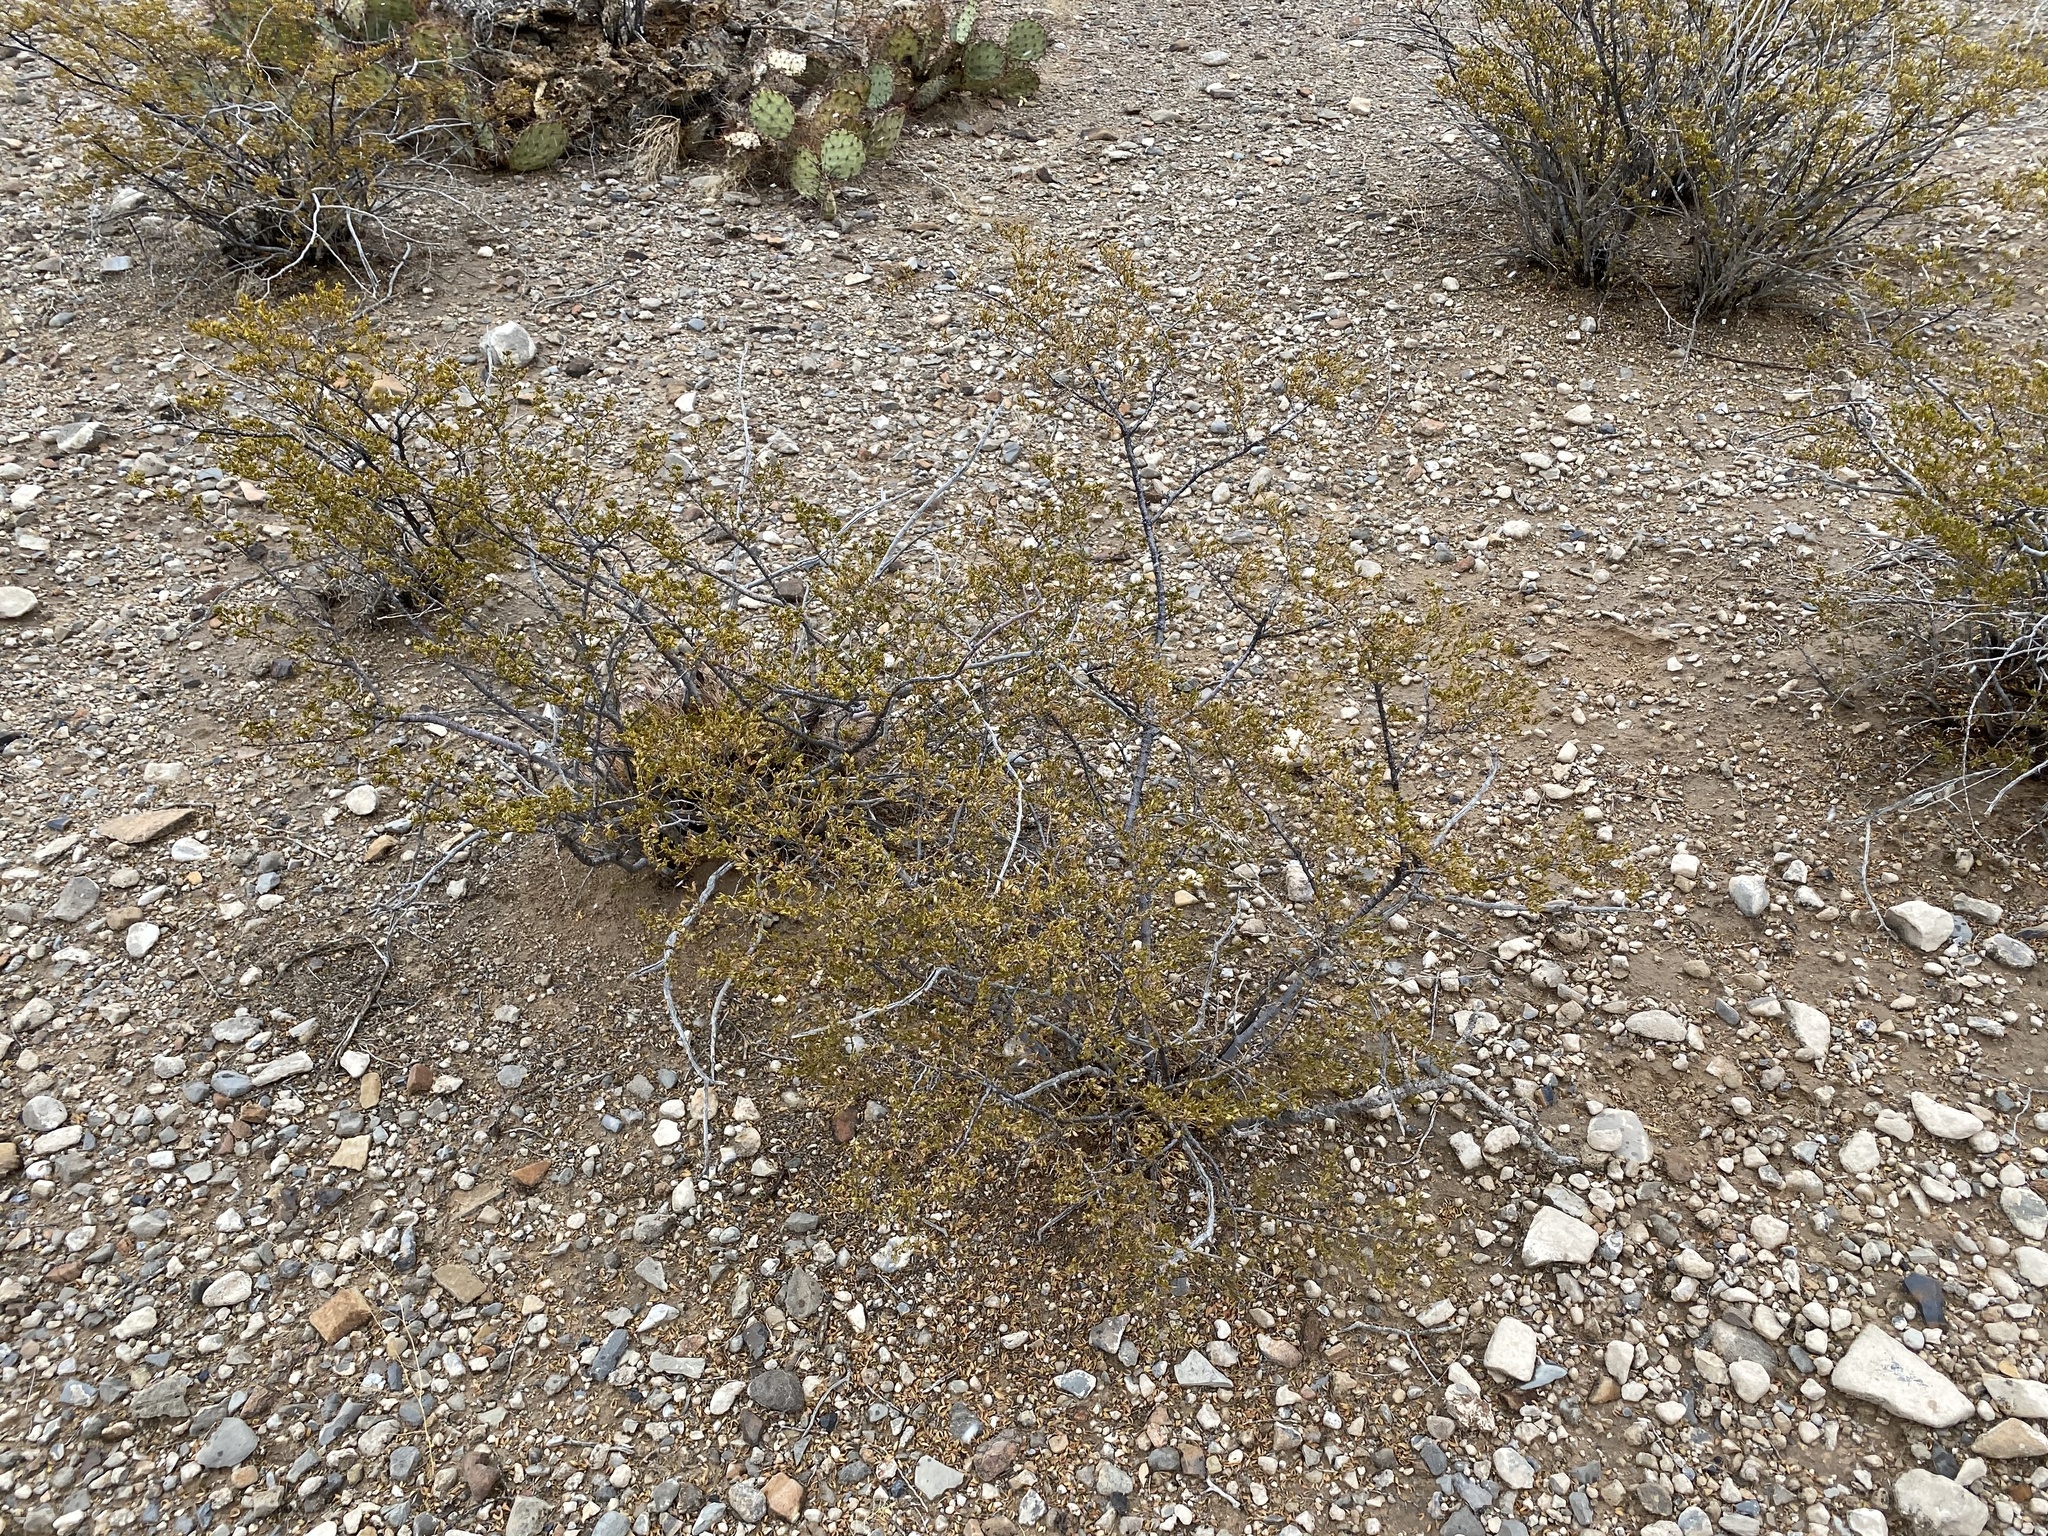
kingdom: Plantae
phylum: Tracheophyta
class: Magnoliopsida
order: Zygophyllales
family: Zygophyllaceae
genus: Larrea
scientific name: Larrea tridentata
